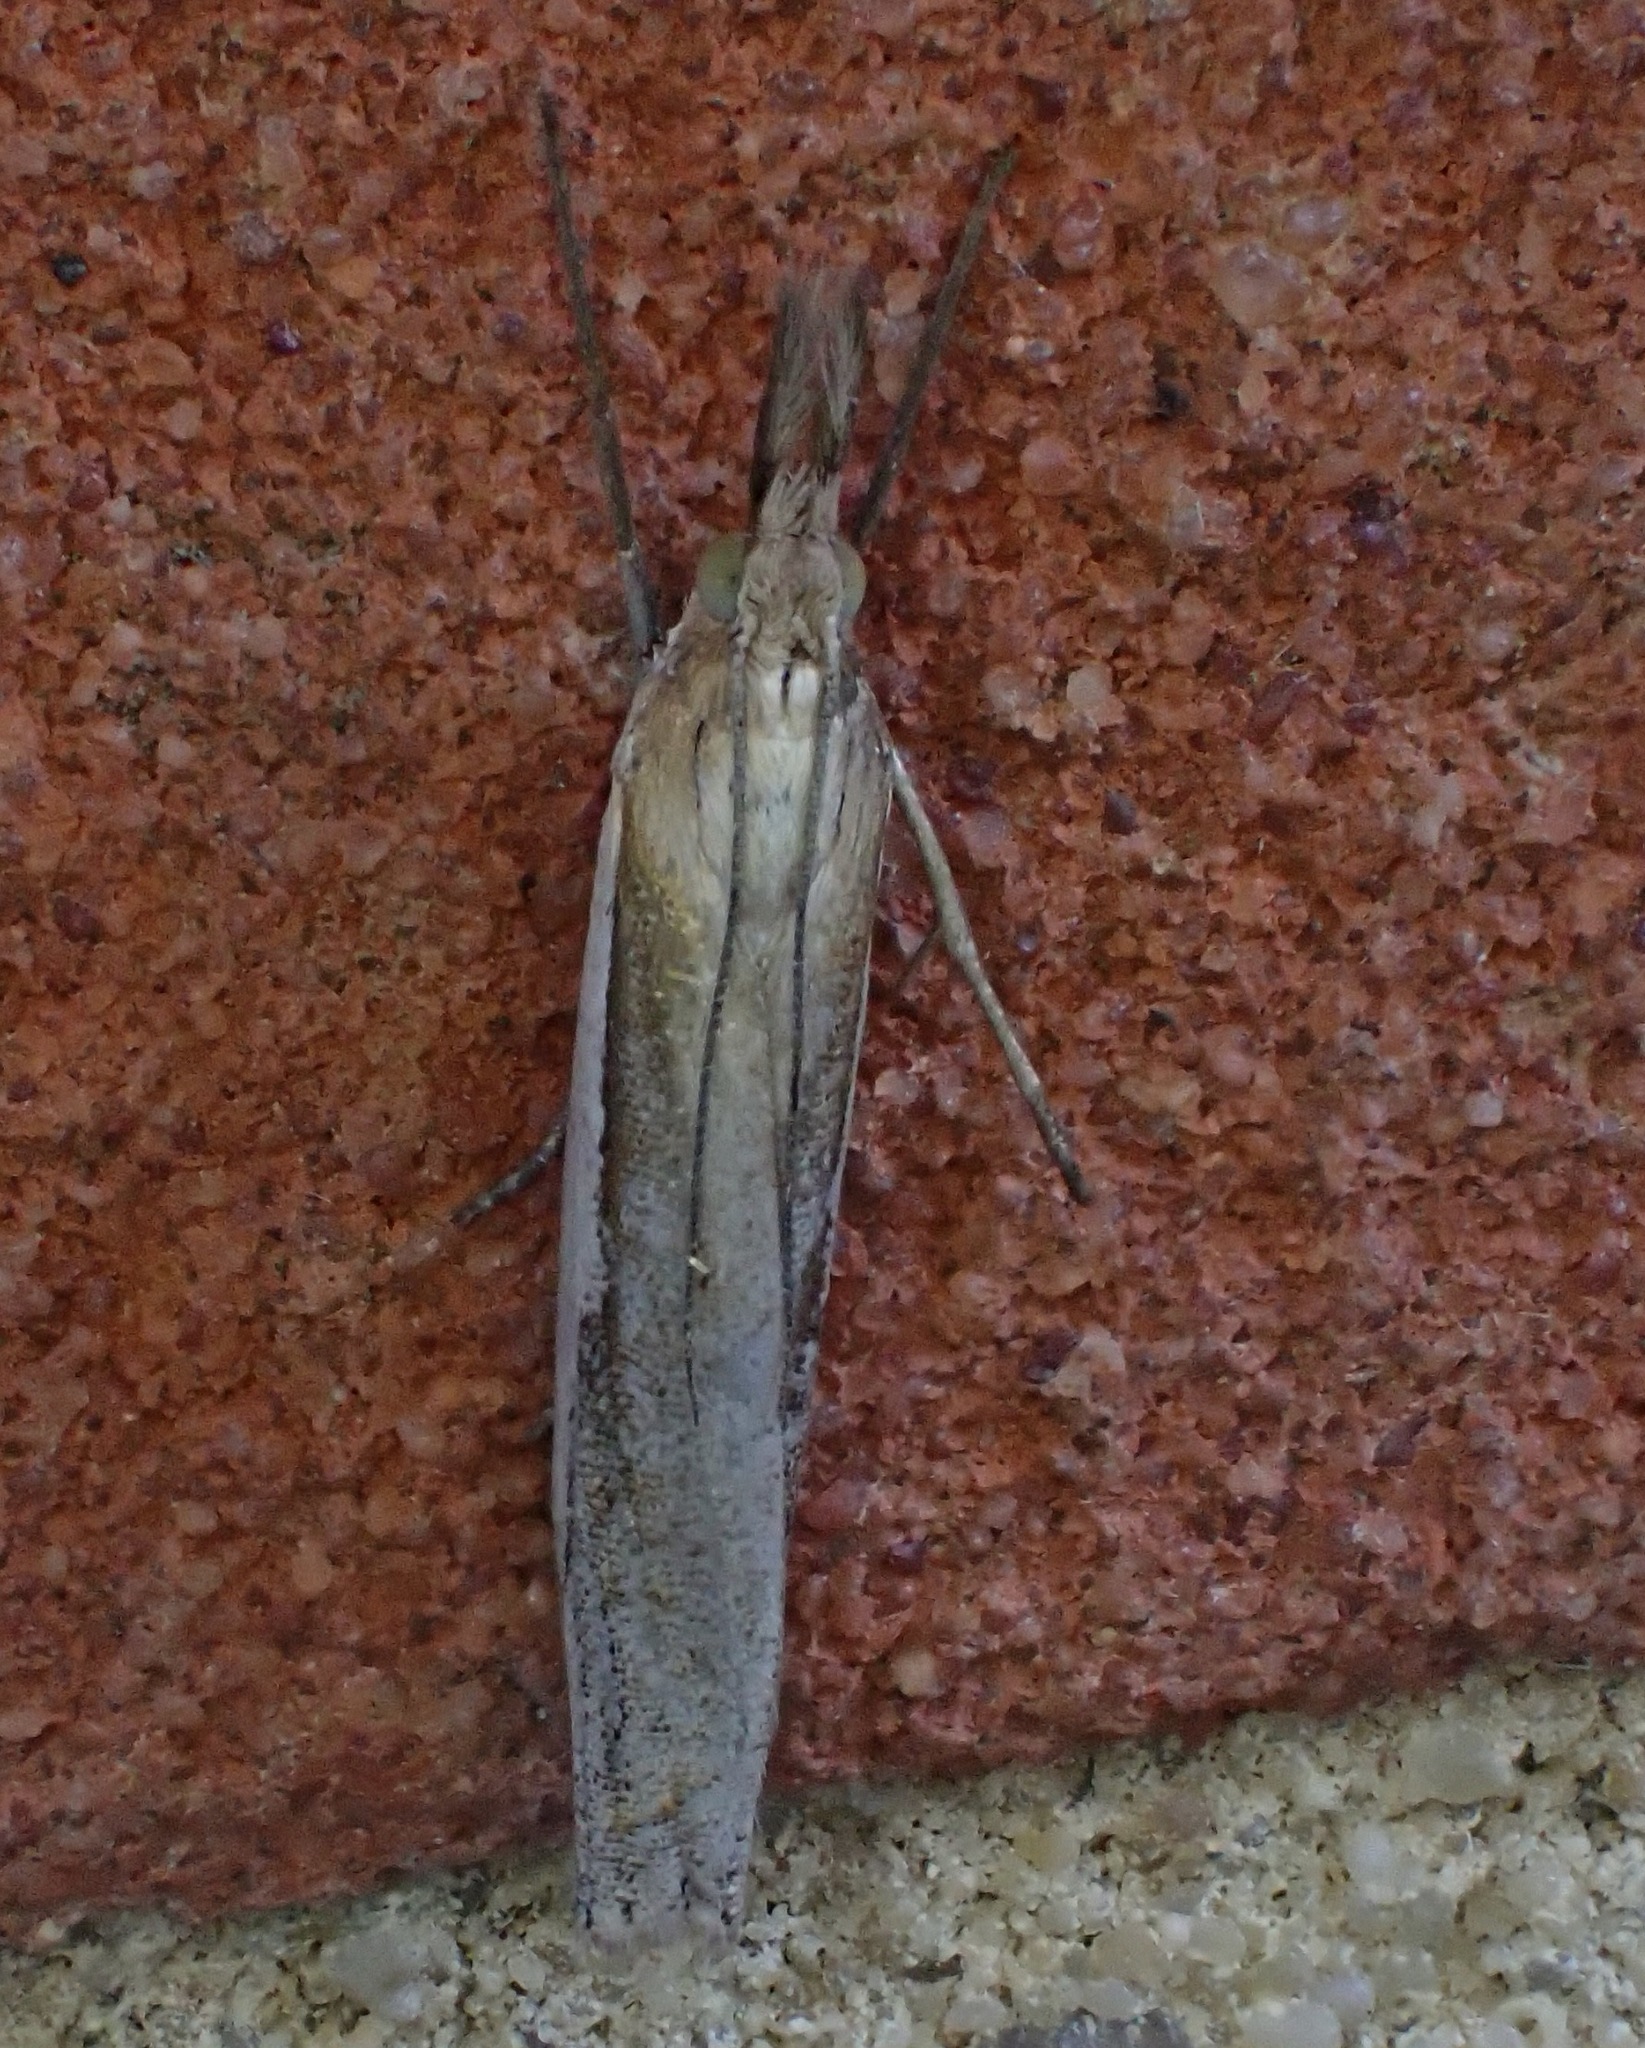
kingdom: Animalia
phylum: Arthropoda
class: Insecta
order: Lepidoptera
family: Crambidae
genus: Agriphila
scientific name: Agriphila tristellus
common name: Common grass-veneer
